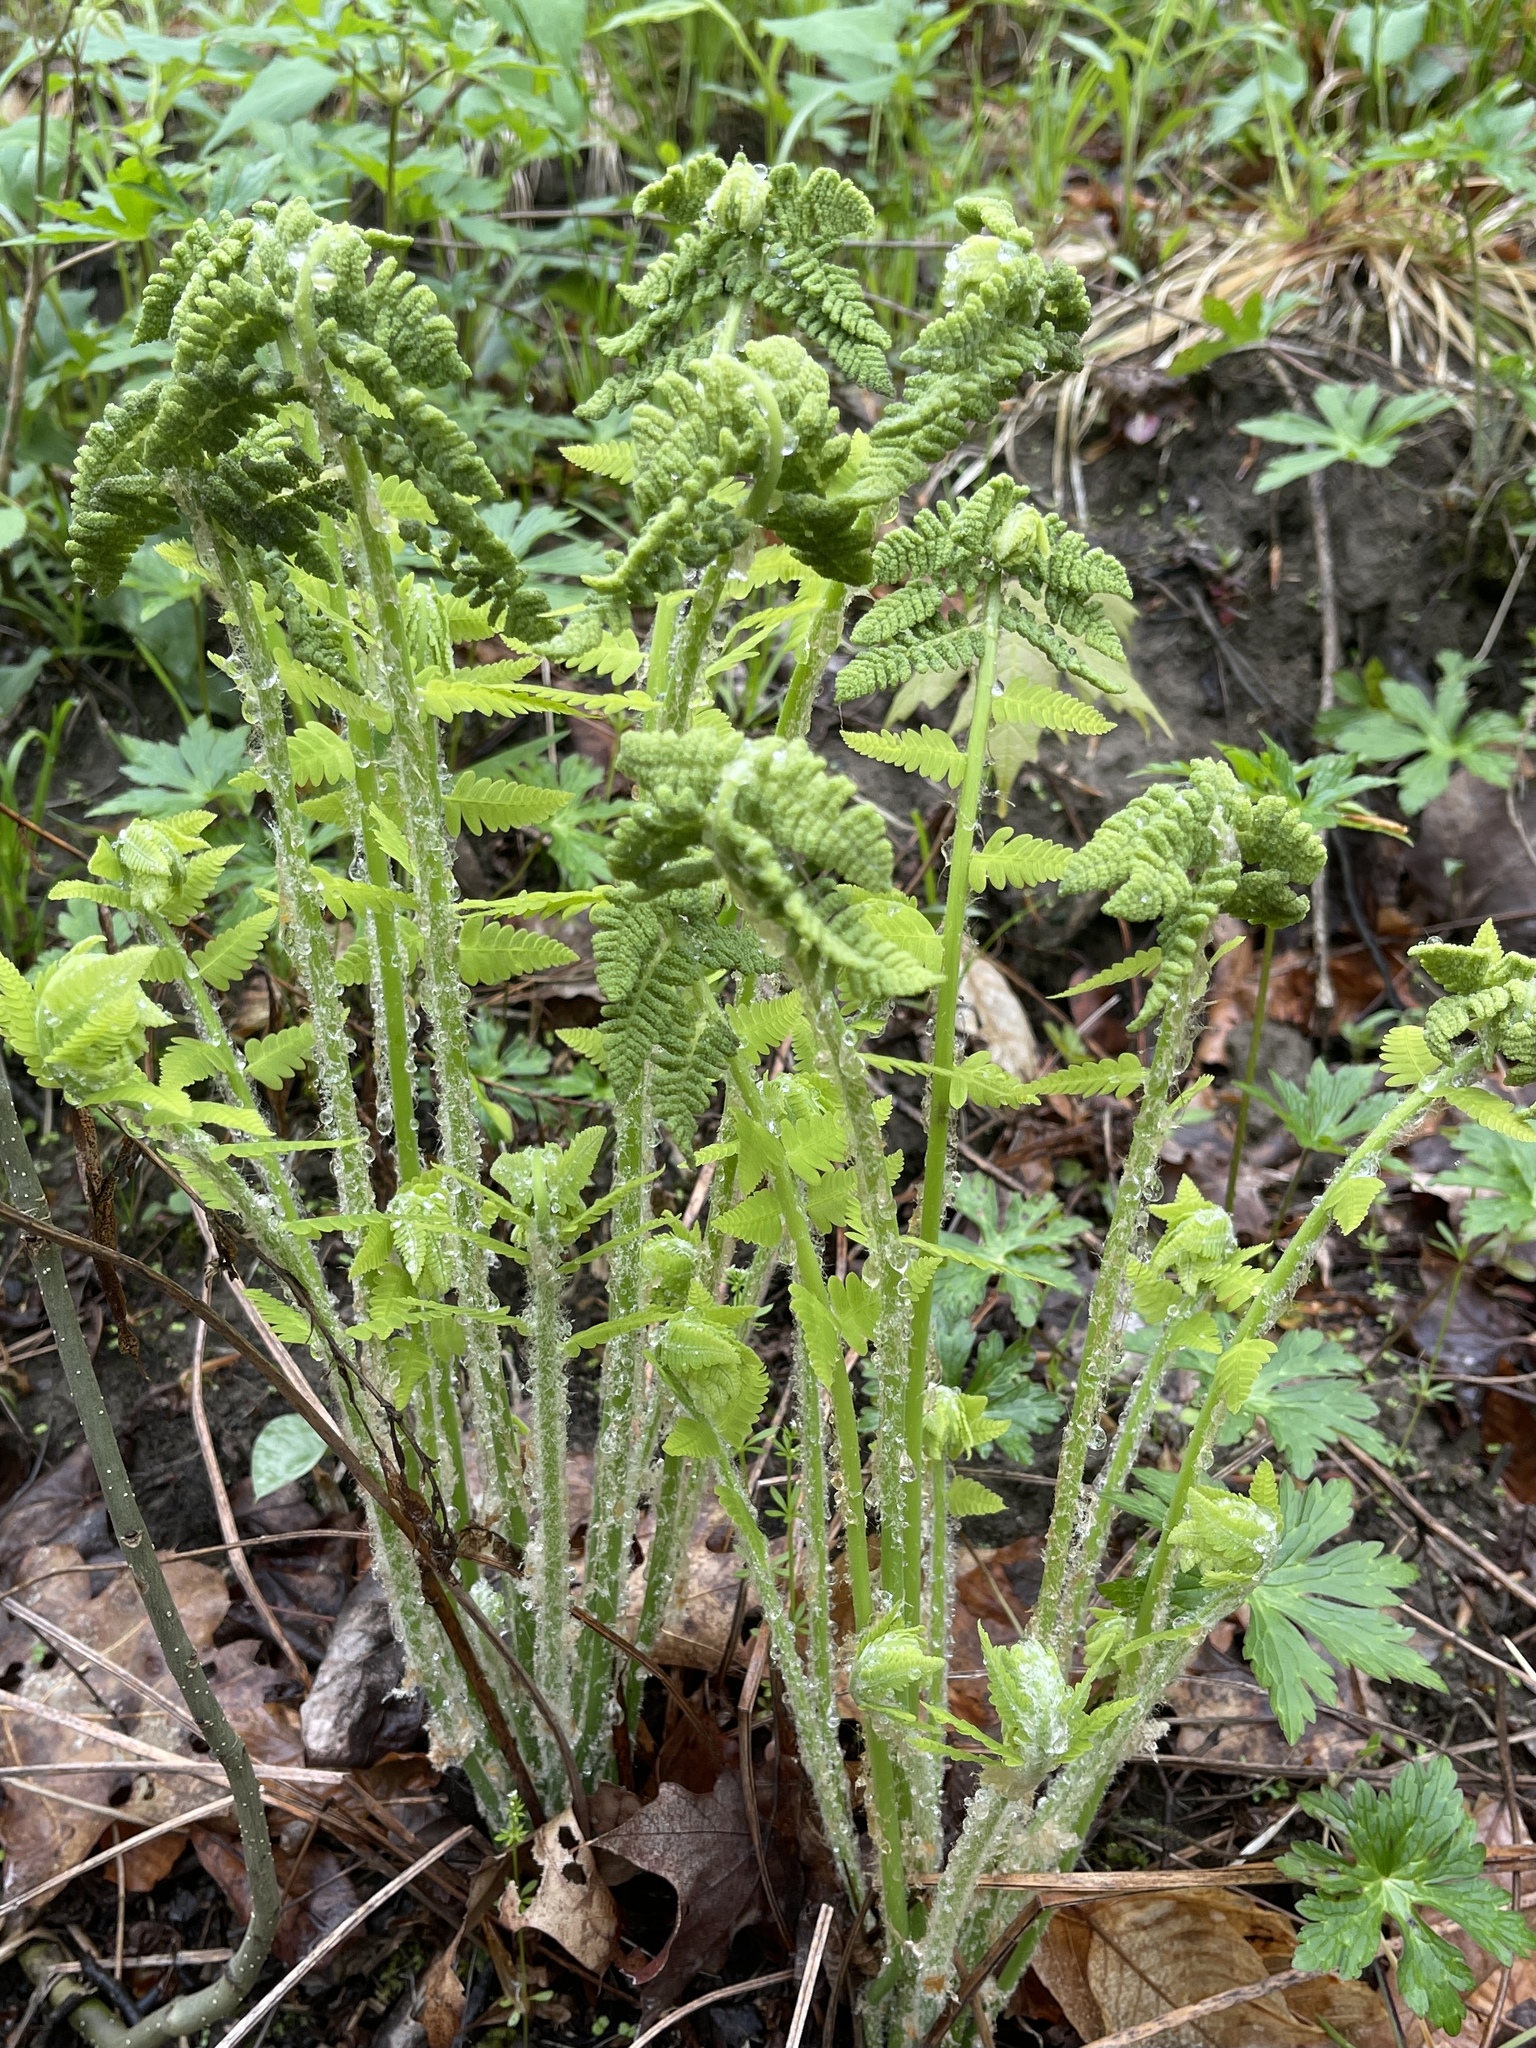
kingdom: Plantae
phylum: Tracheophyta
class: Polypodiopsida
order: Polypodiales
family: Athyriaceae
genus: Deparia
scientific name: Deparia acrostichoides
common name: Silver false spleenwort
